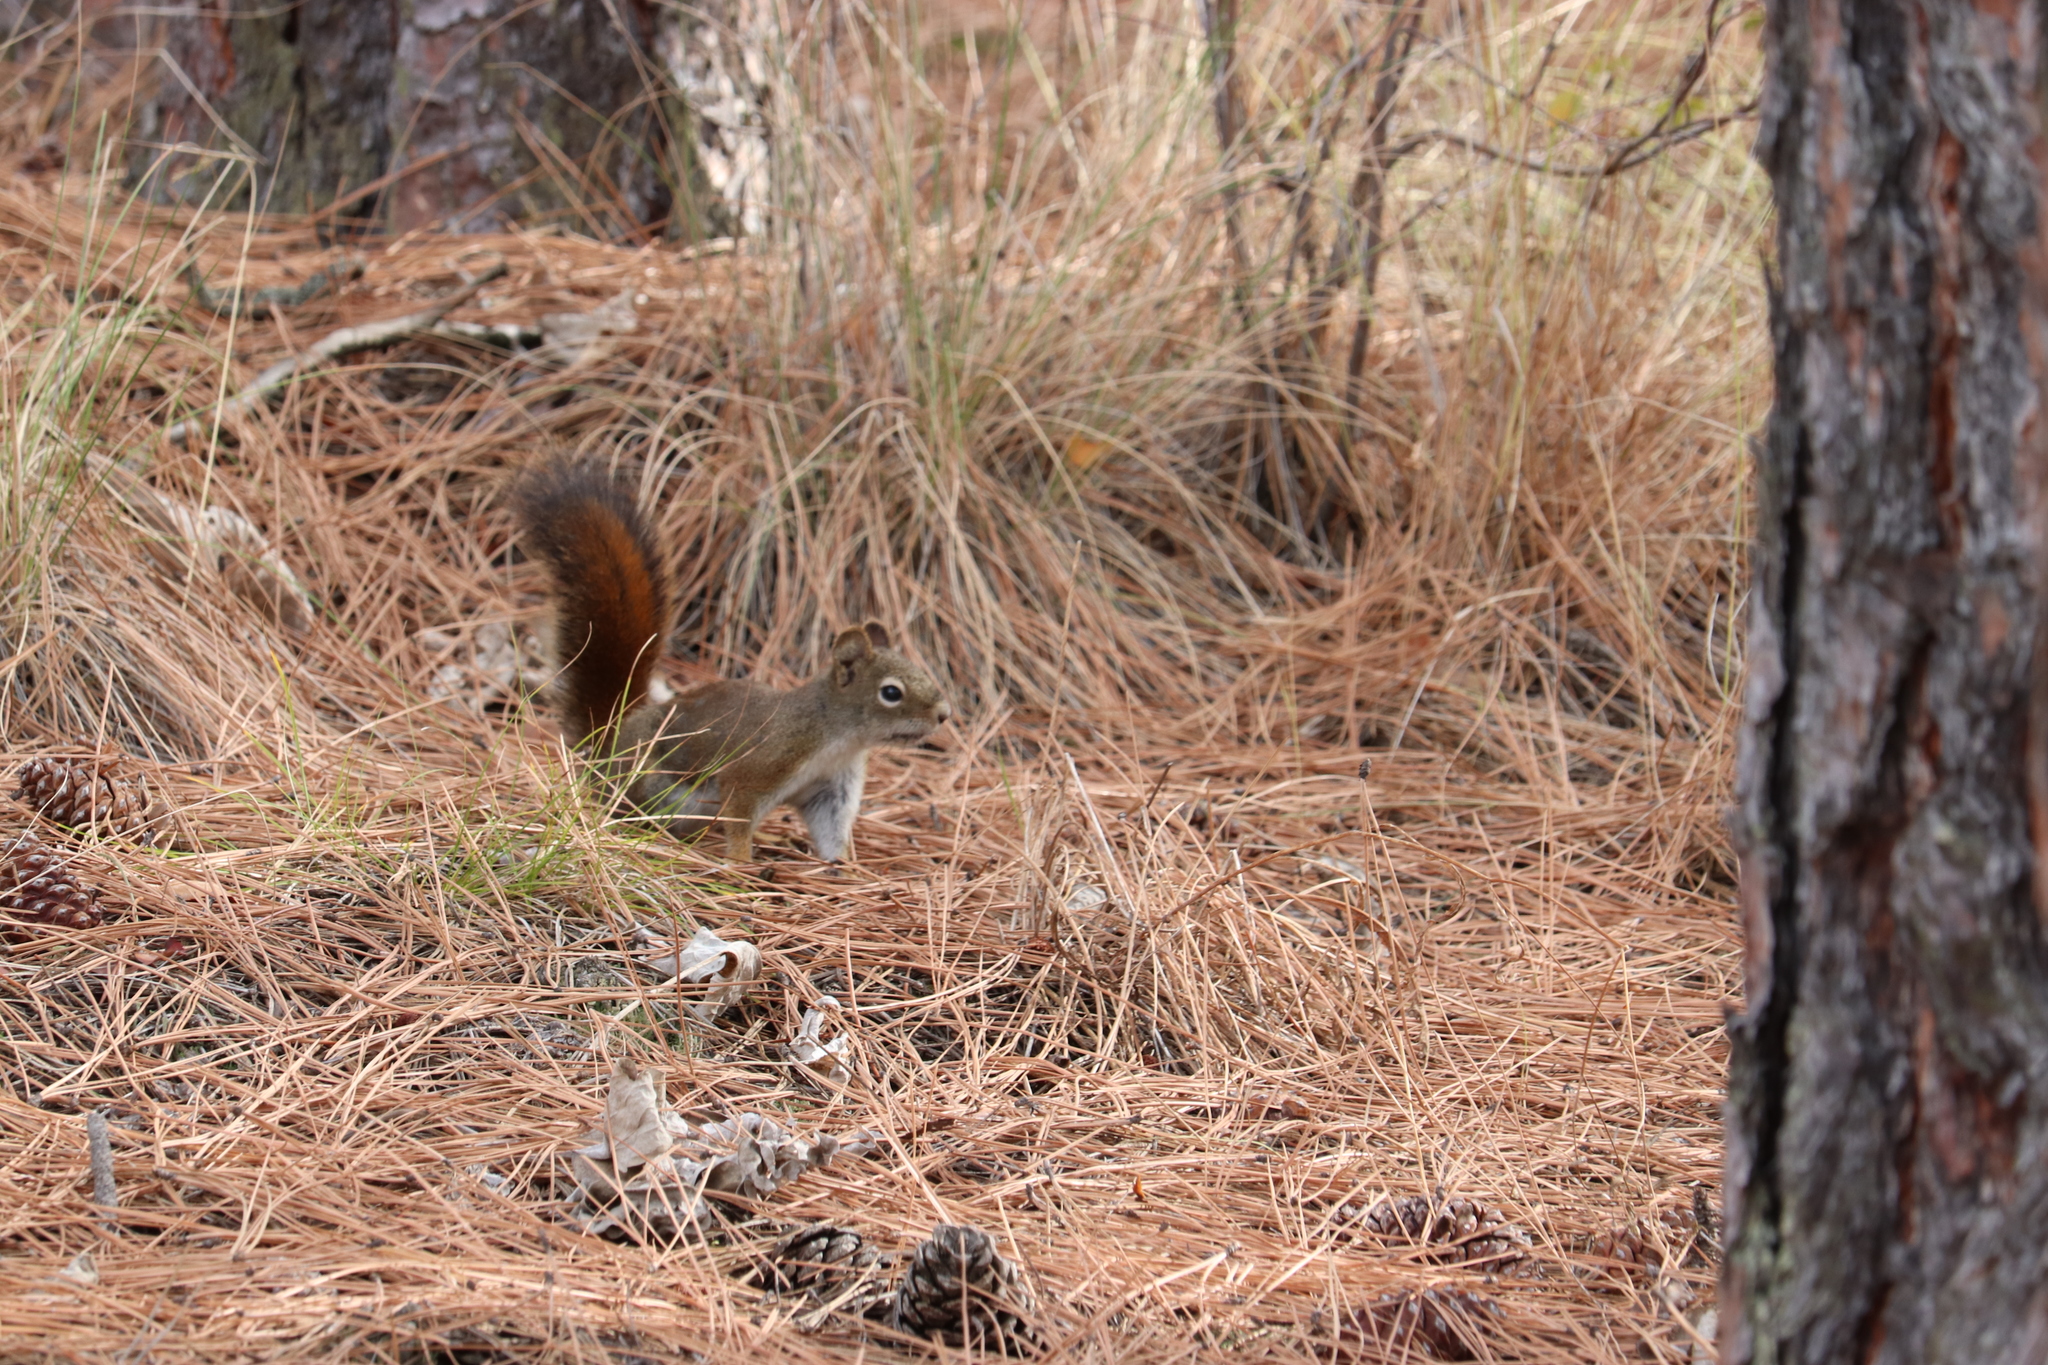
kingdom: Animalia
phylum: Chordata
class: Mammalia
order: Rodentia
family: Sciuridae
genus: Tamiasciurus
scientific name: Tamiasciurus hudsonicus
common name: Red squirrel
